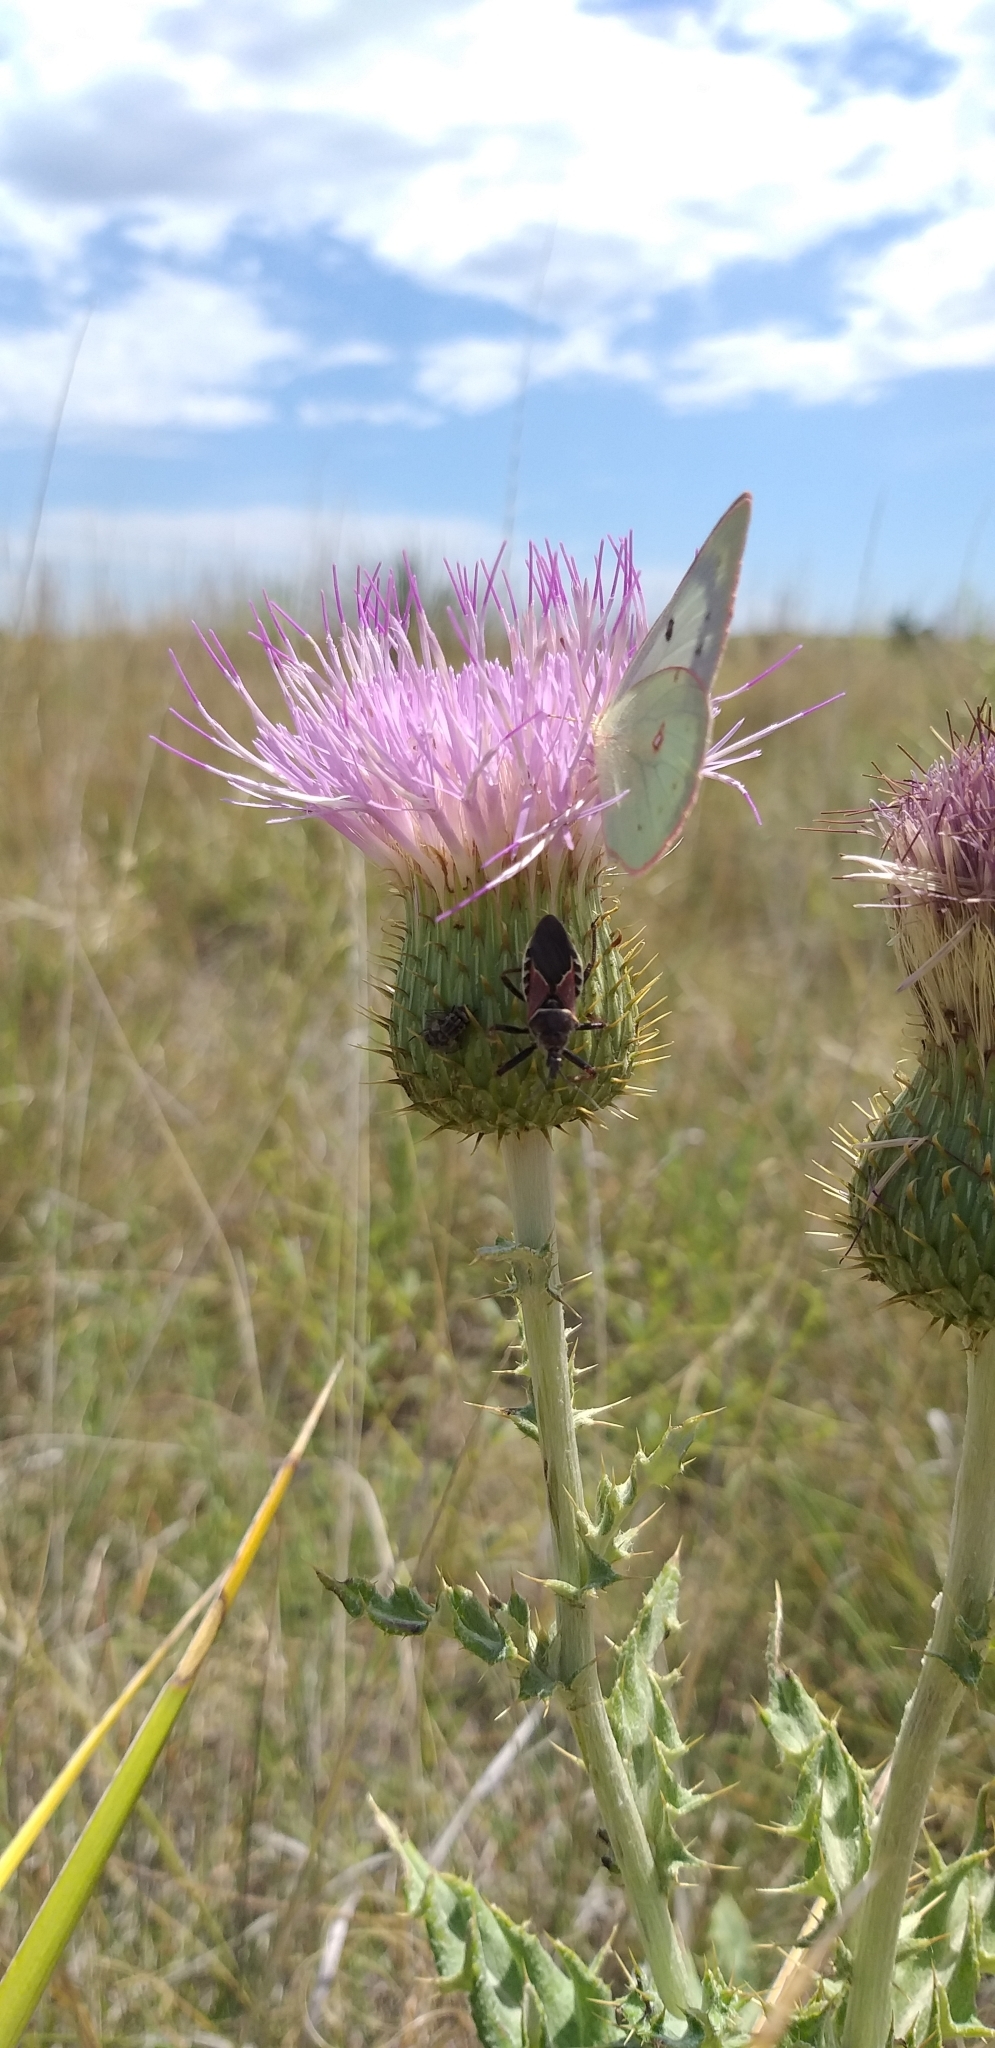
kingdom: Animalia
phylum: Arthropoda
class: Insecta
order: Hemiptera
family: Reduviidae
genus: Apiomerus
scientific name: Apiomerus spissipes
